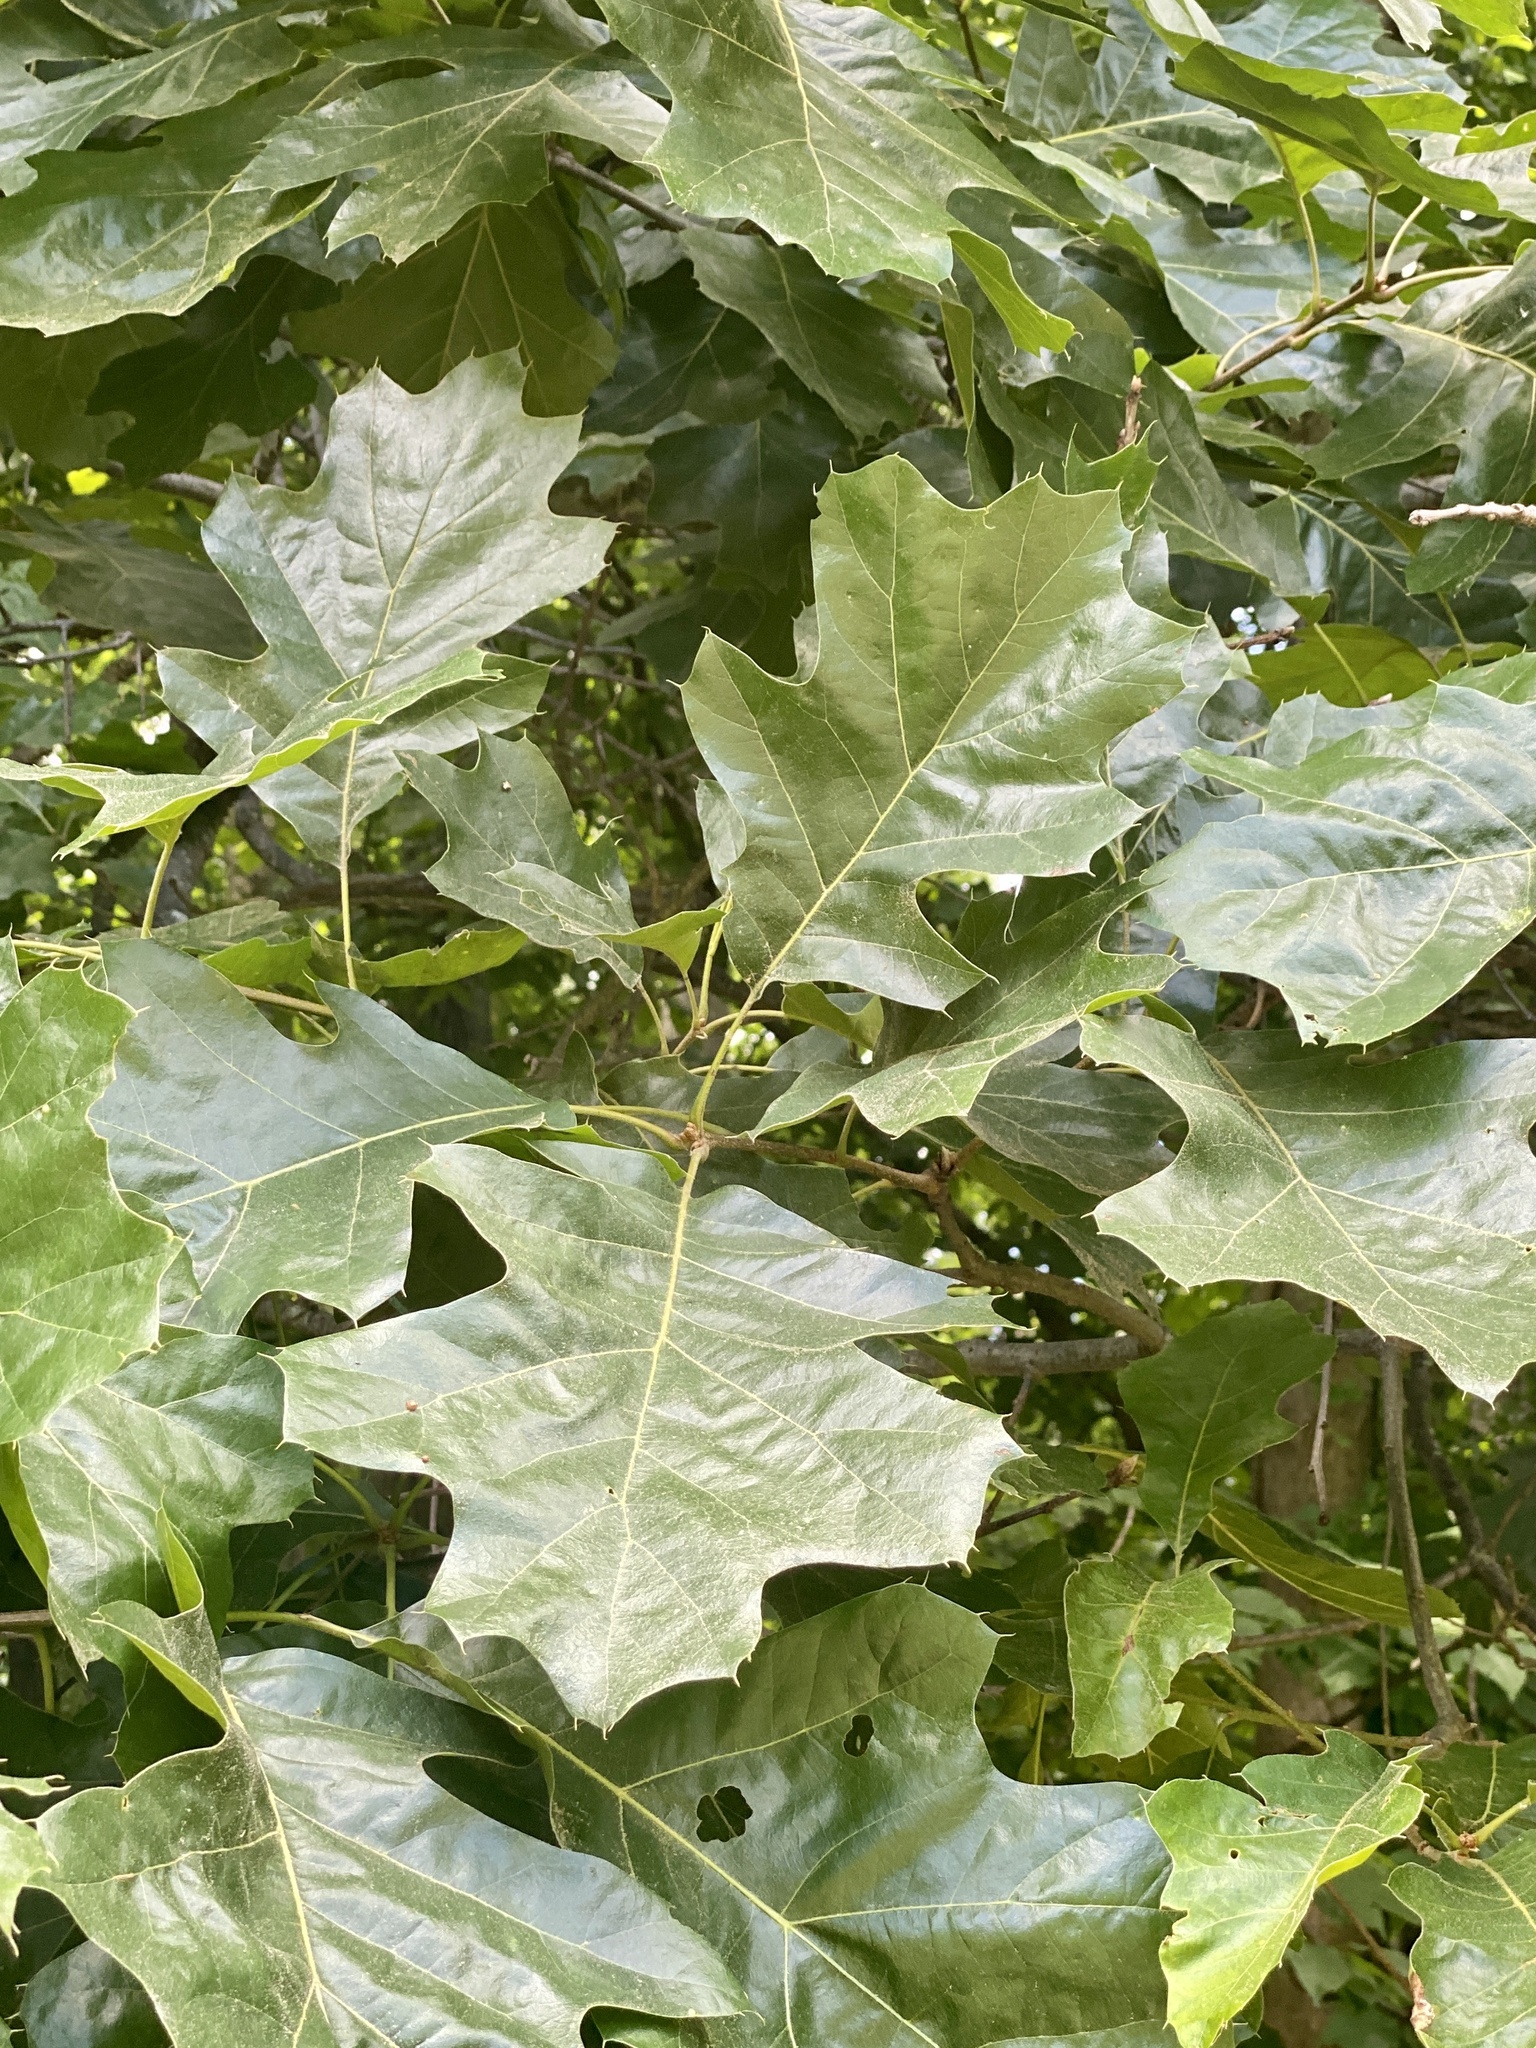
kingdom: Plantae
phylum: Tracheophyta
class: Magnoliopsida
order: Fagales
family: Fagaceae
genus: Quercus
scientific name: Quercus velutina
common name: Black oak
